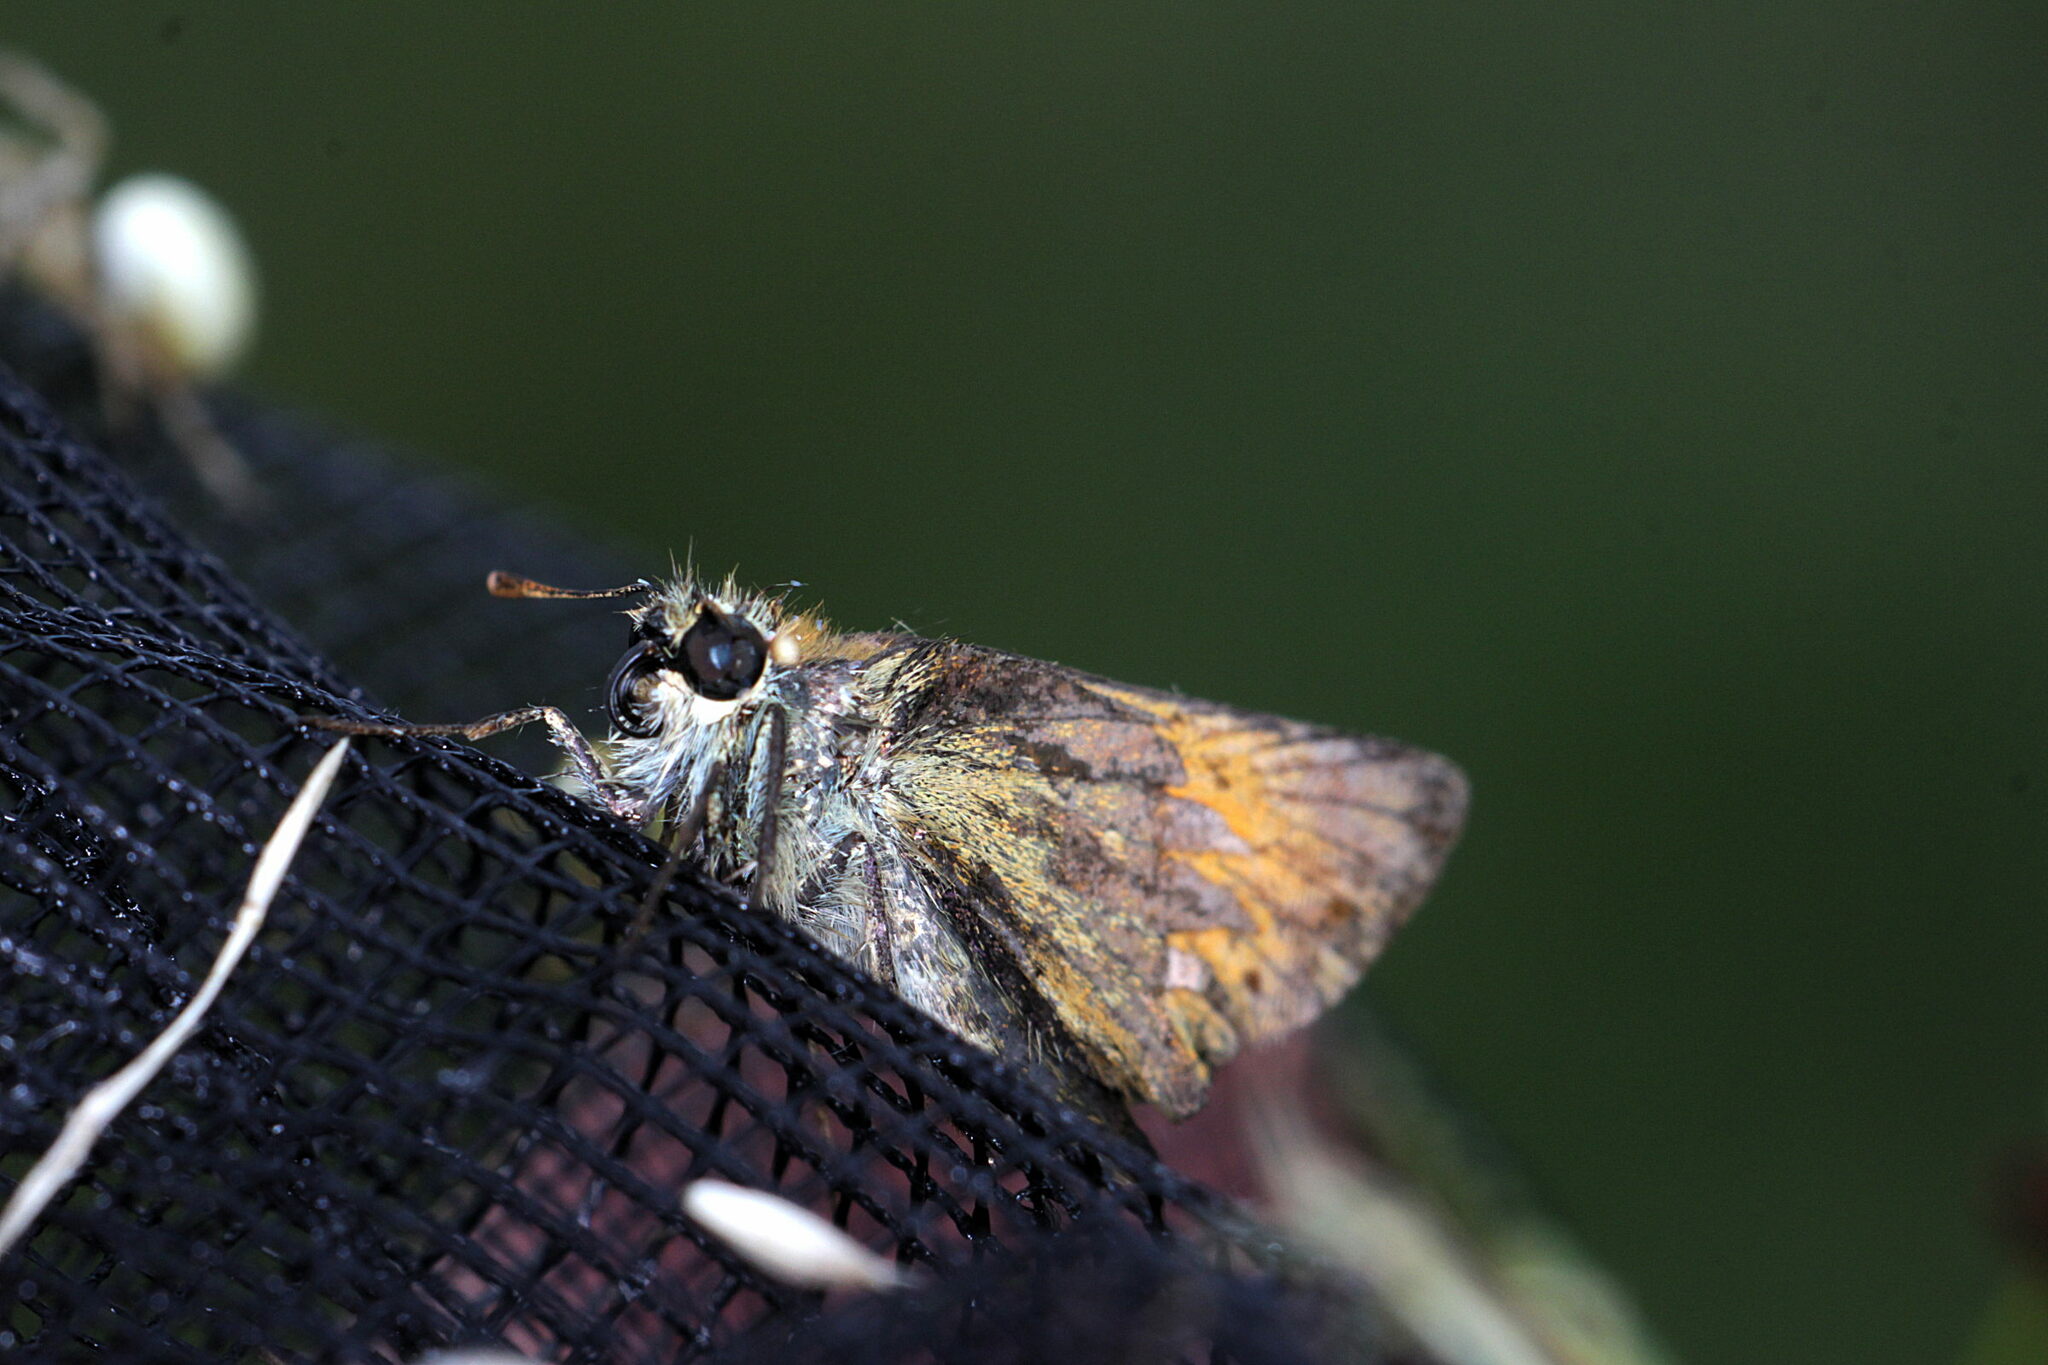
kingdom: Animalia
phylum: Arthropoda
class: Insecta
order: Lepidoptera
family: Hesperiidae
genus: Thymelicus
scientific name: Thymelicus sylvestris
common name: Small skipper
